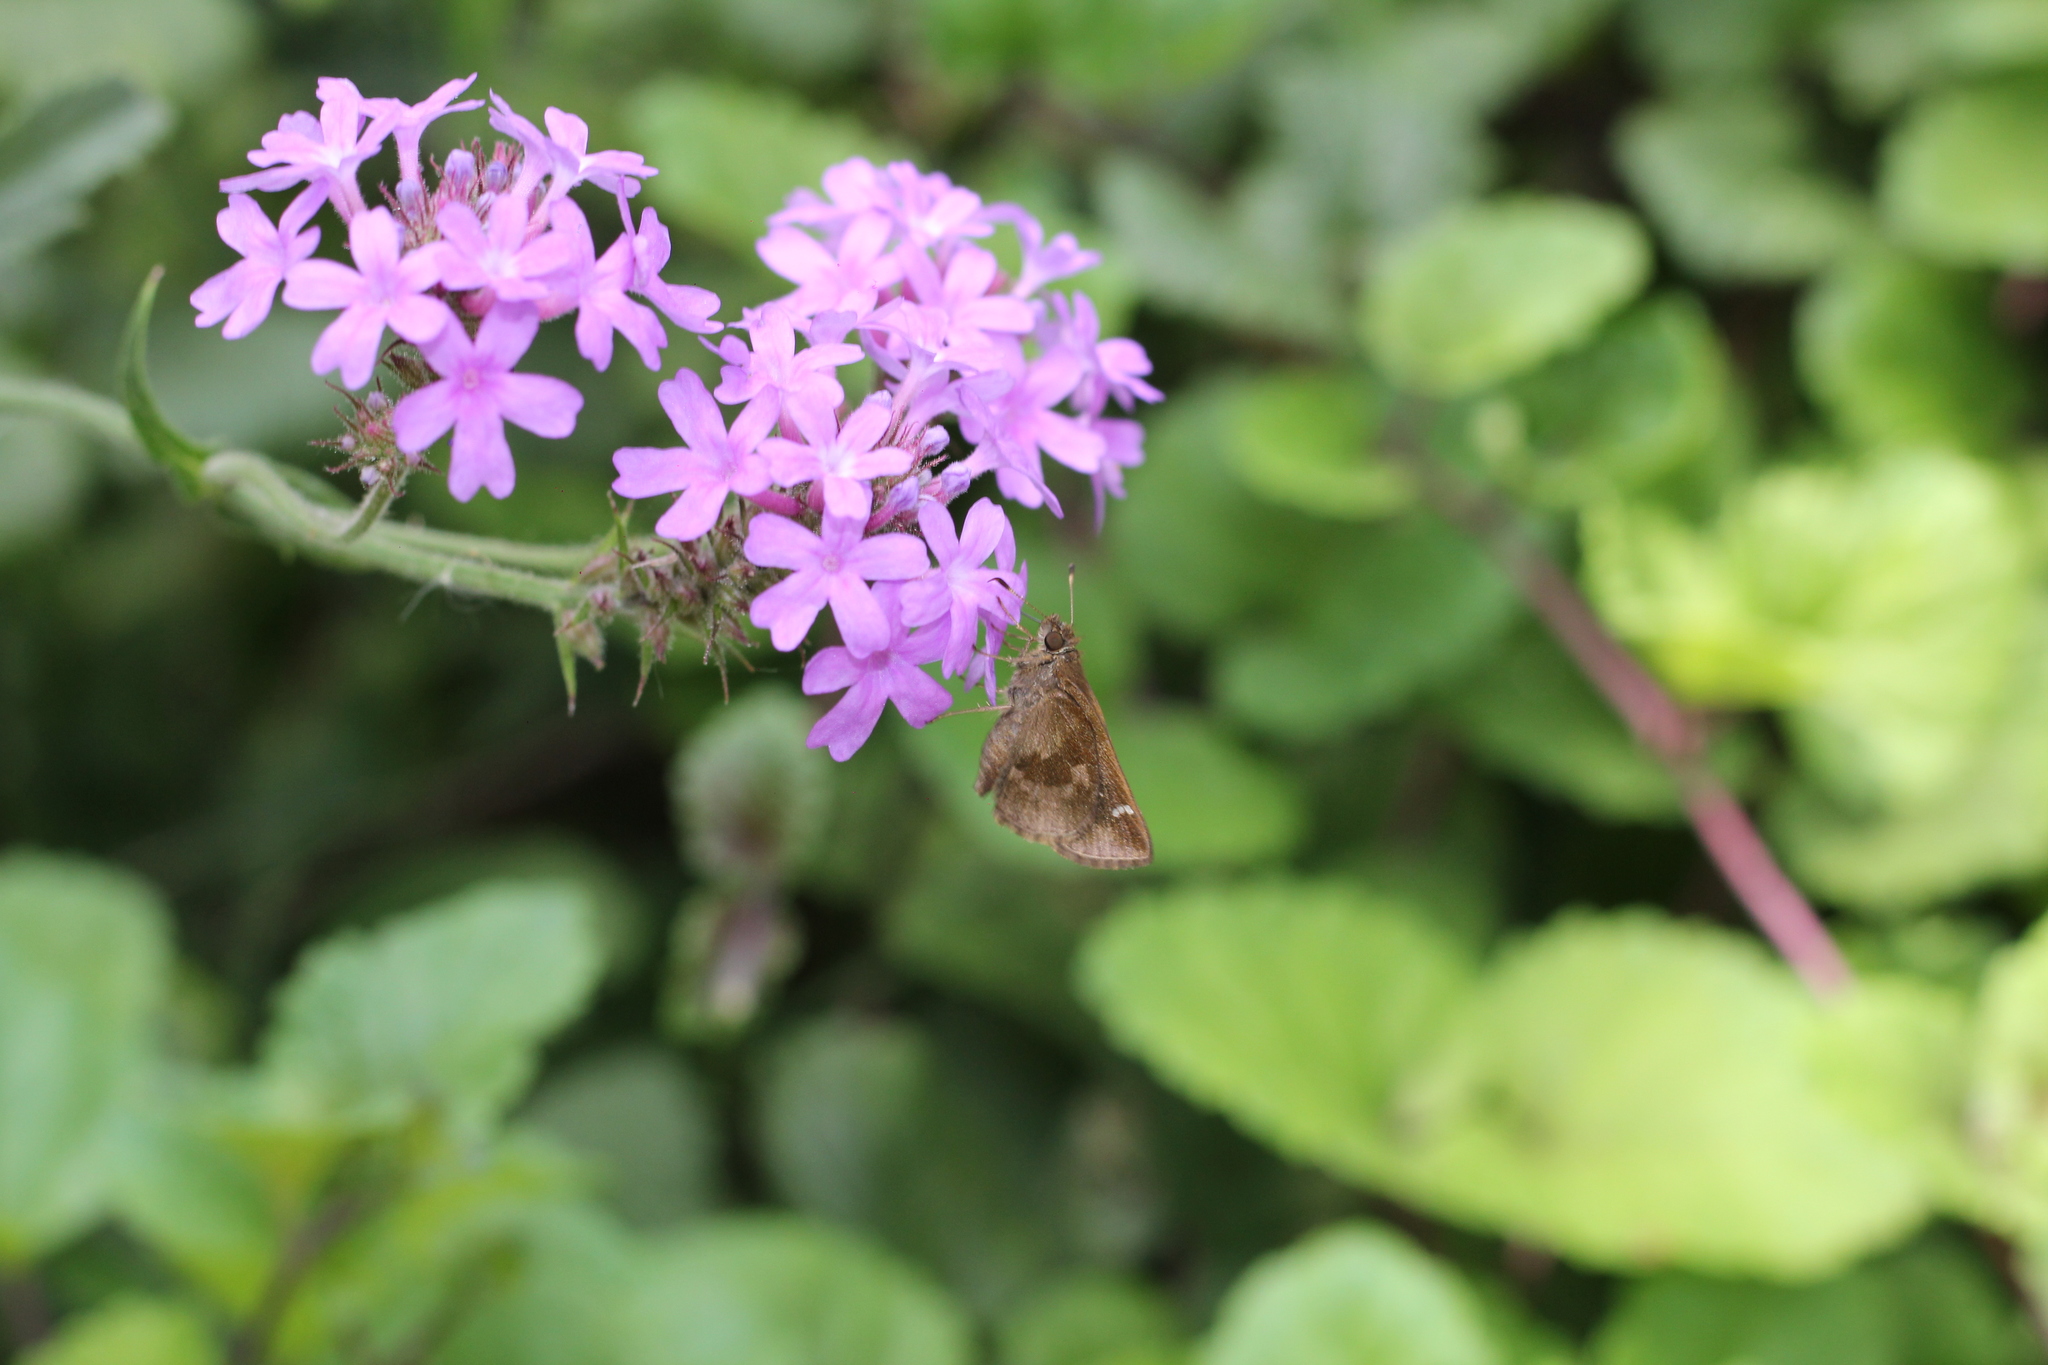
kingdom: Animalia
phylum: Arthropoda
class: Insecta
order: Lepidoptera
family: Hesperiidae
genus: Cymaenes
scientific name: Cymaenes
